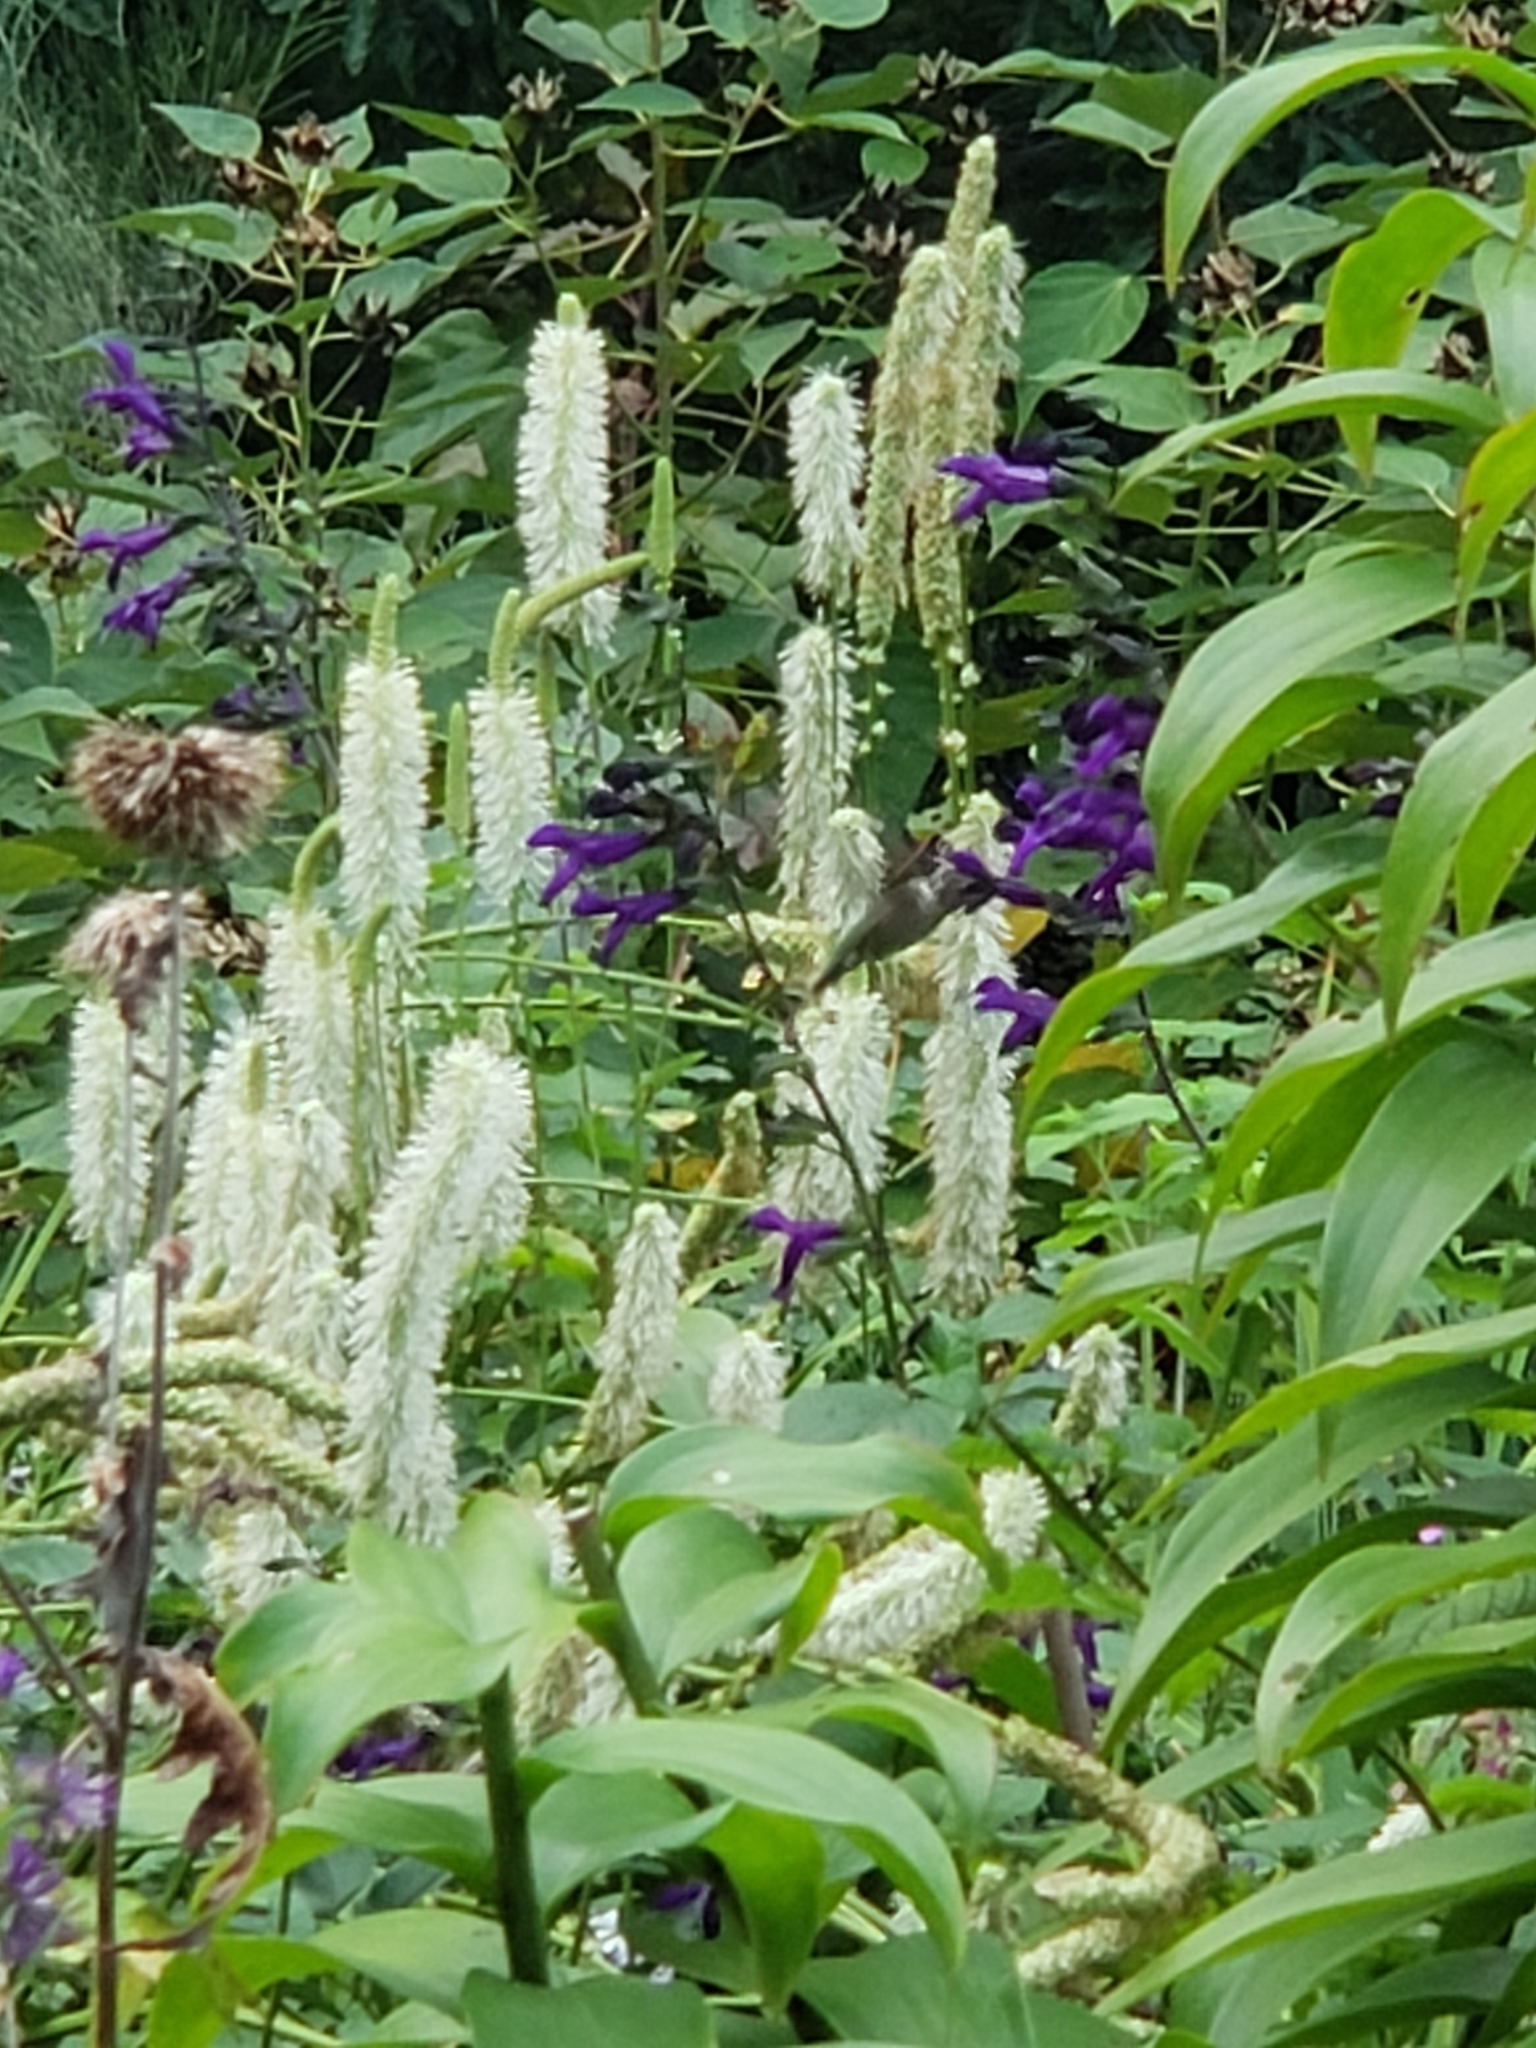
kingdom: Animalia
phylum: Chordata
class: Aves
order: Apodiformes
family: Trochilidae
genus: Archilochus
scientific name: Archilochus colubris
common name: Ruby-throated hummingbird
